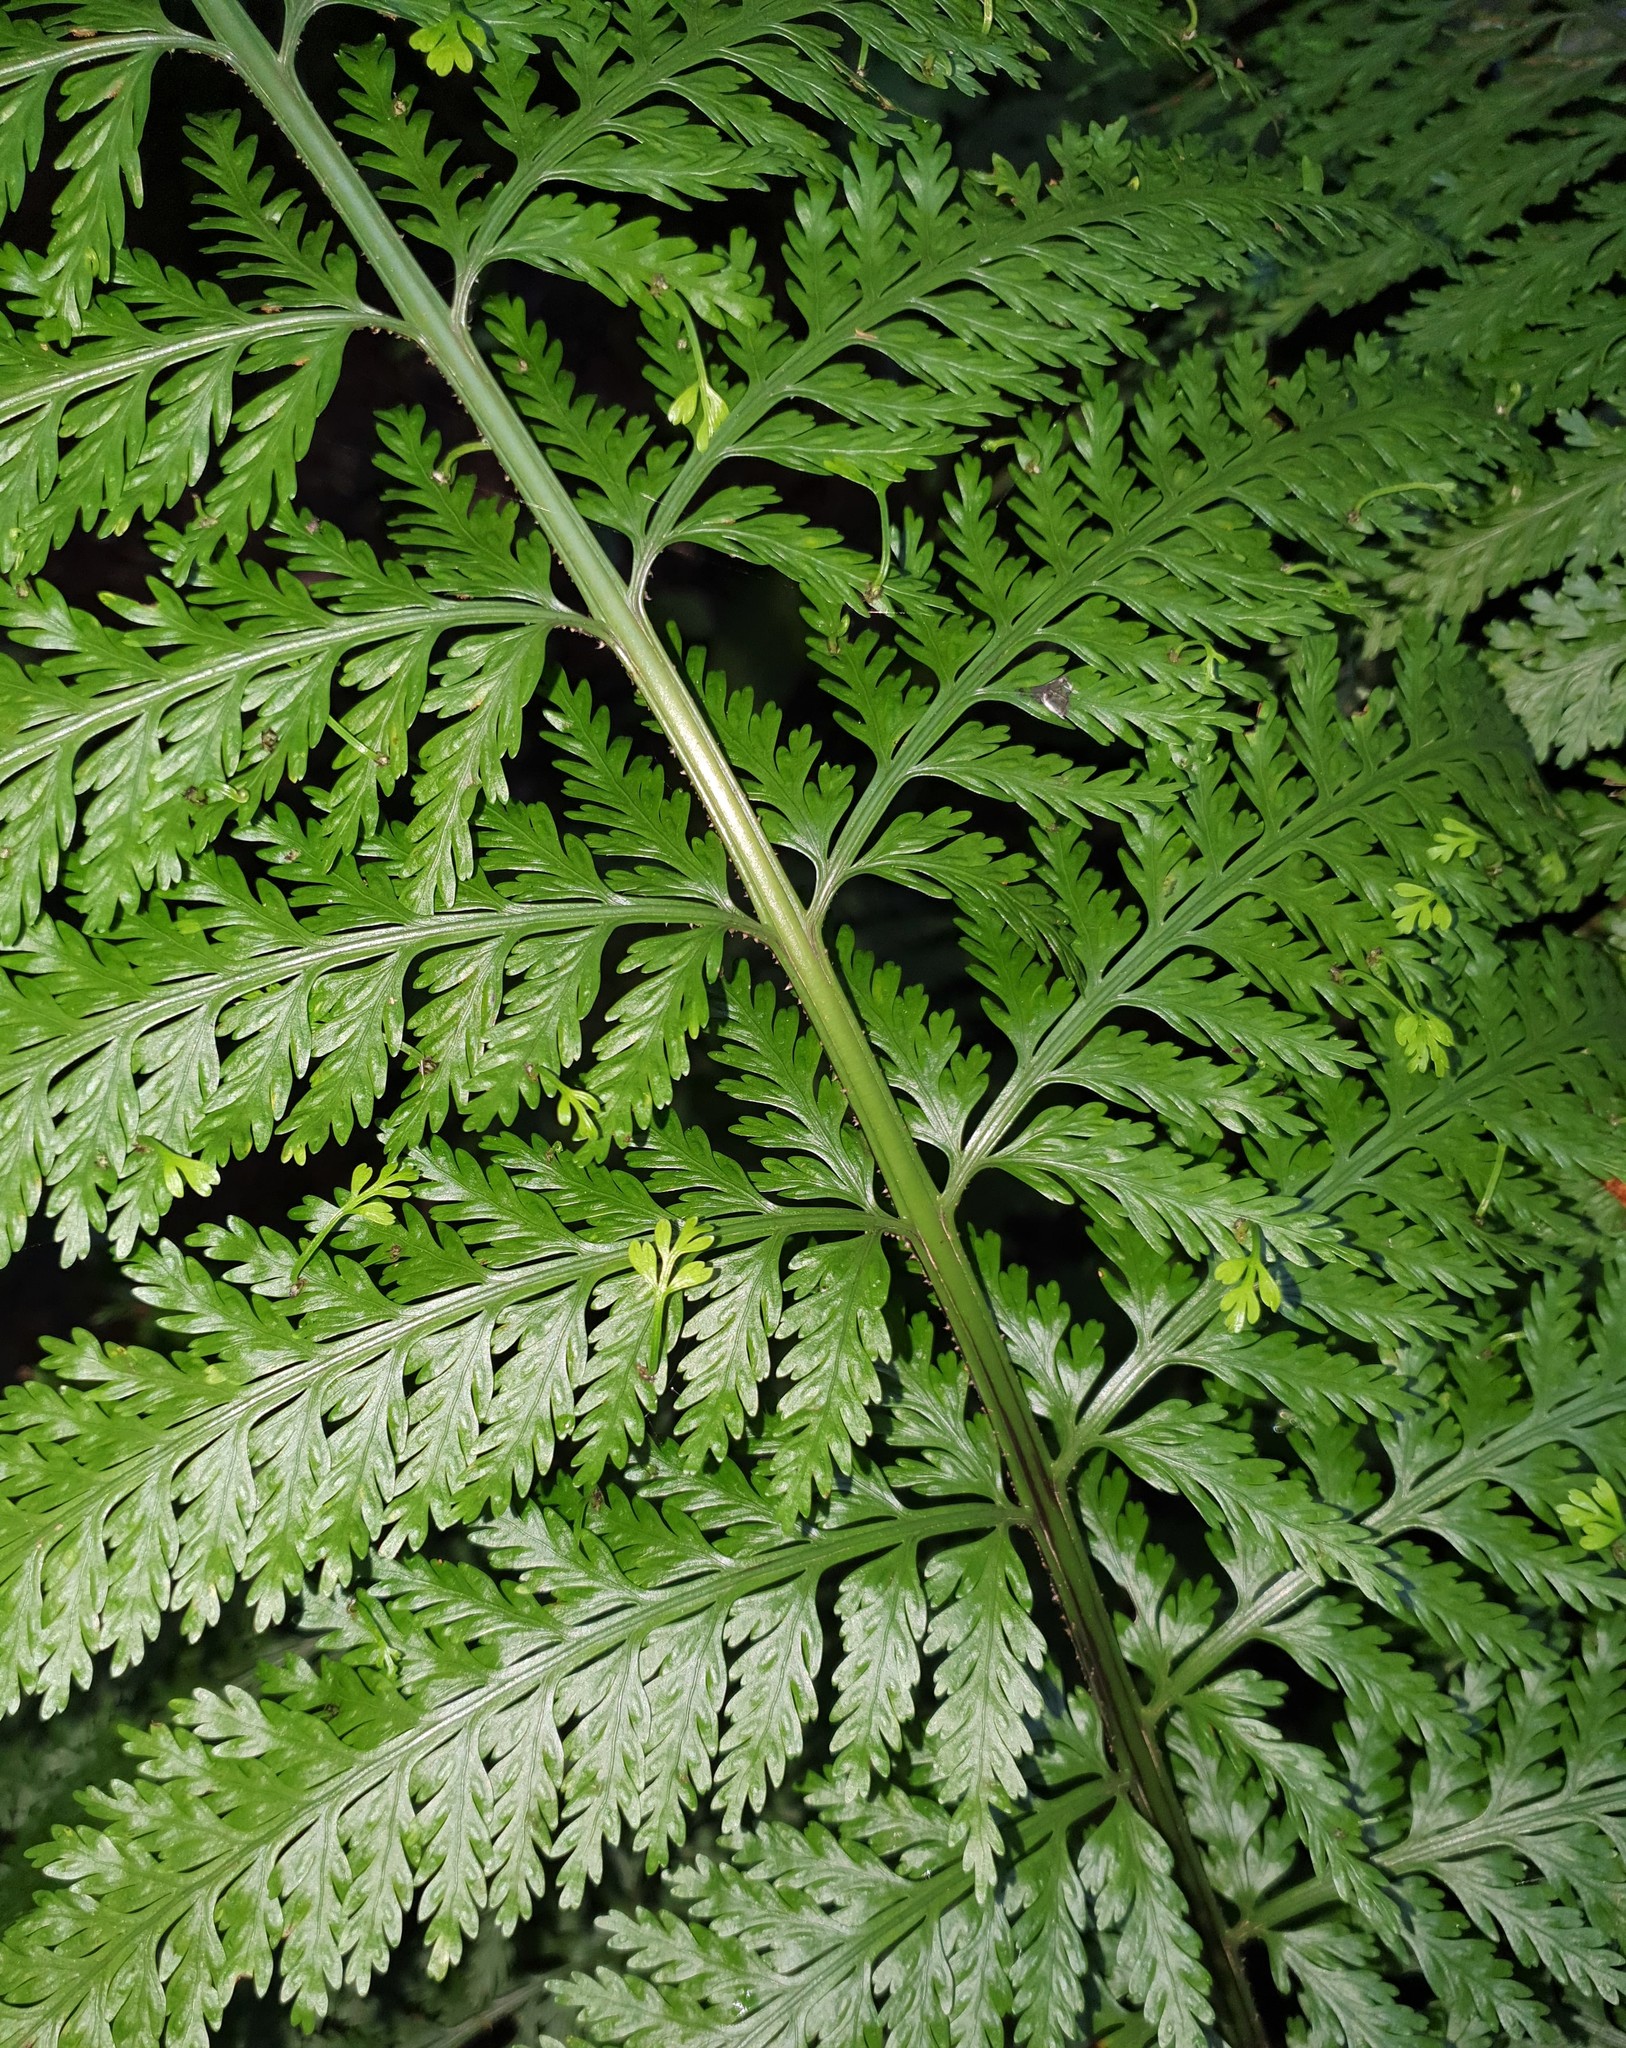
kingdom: Plantae
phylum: Tracheophyta
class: Polypodiopsida
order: Polypodiales
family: Aspleniaceae
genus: Asplenium
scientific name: Asplenium bulbiferum
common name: Mother fern
